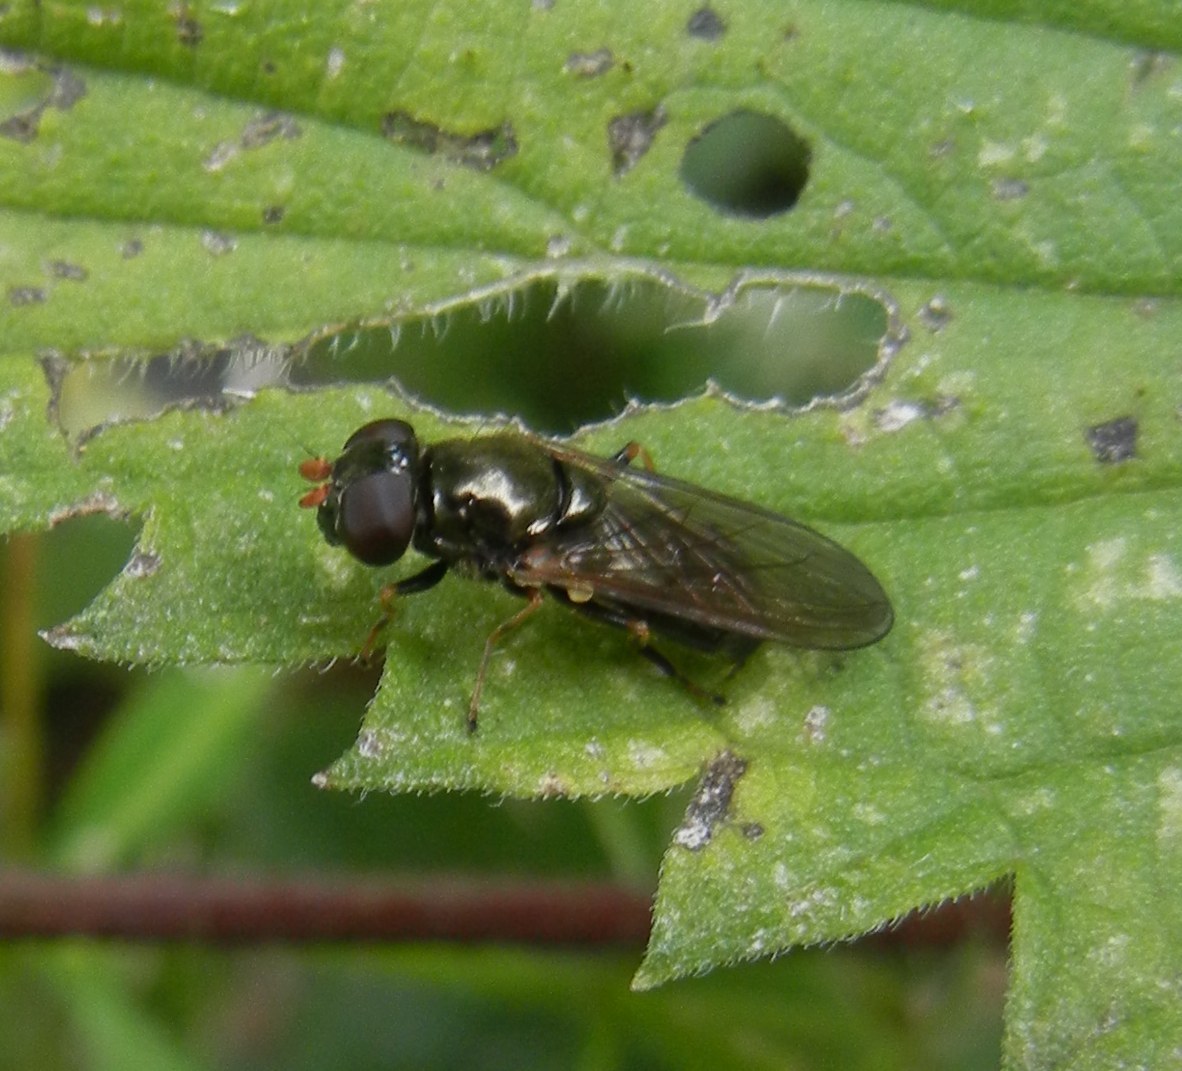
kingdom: Animalia
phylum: Arthropoda
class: Insecta
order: Diptera
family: Syrphidae
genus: Cheilosia
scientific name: Cheilosia pagana
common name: Hover fly
